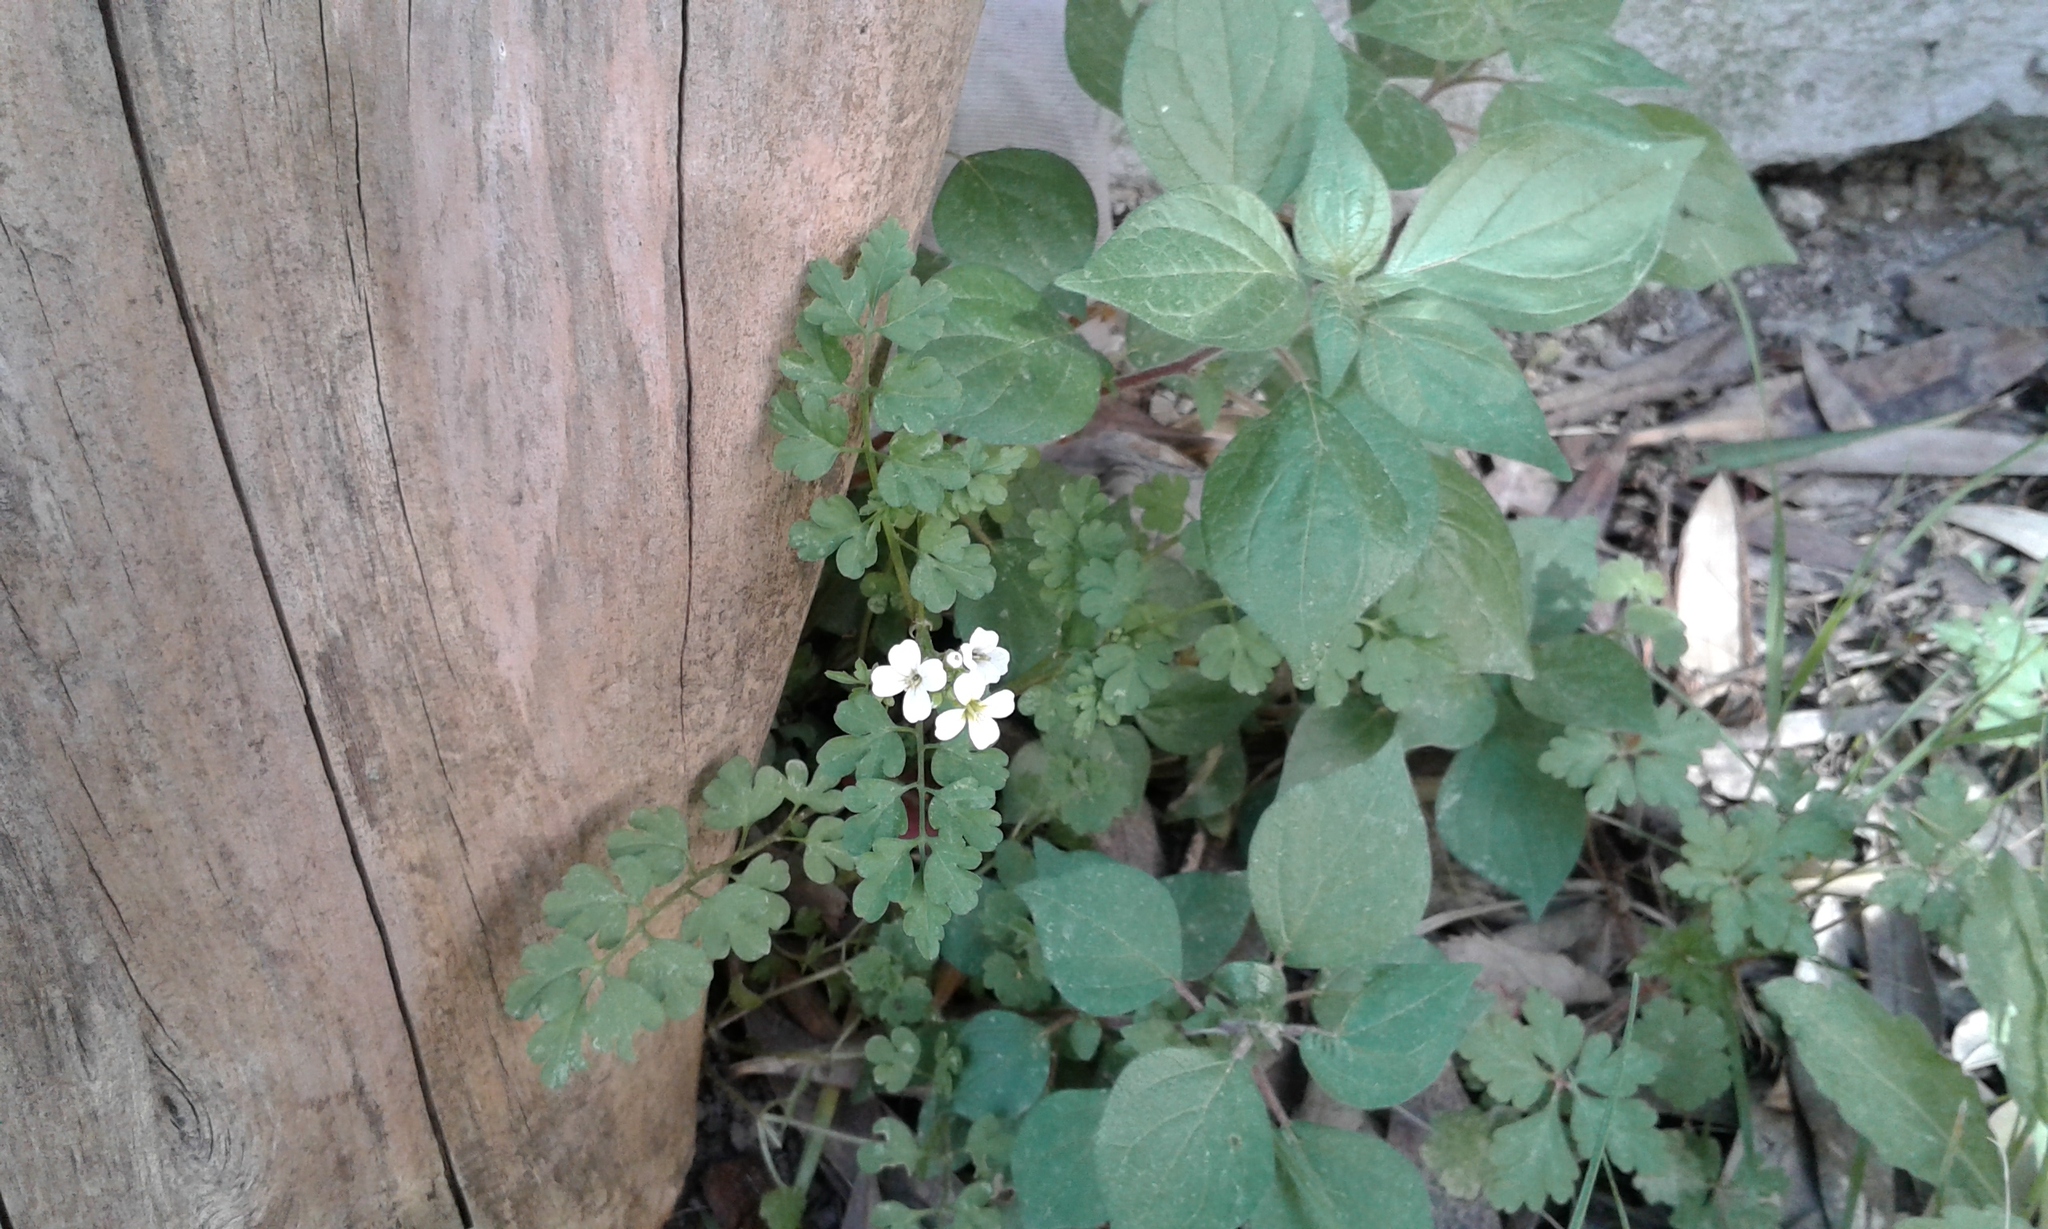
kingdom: Plantae
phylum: Tracheophyta
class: Magnoliopsida
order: Brassicales
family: Brassicaceae
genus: Cardamine
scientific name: Cardamine graeca
